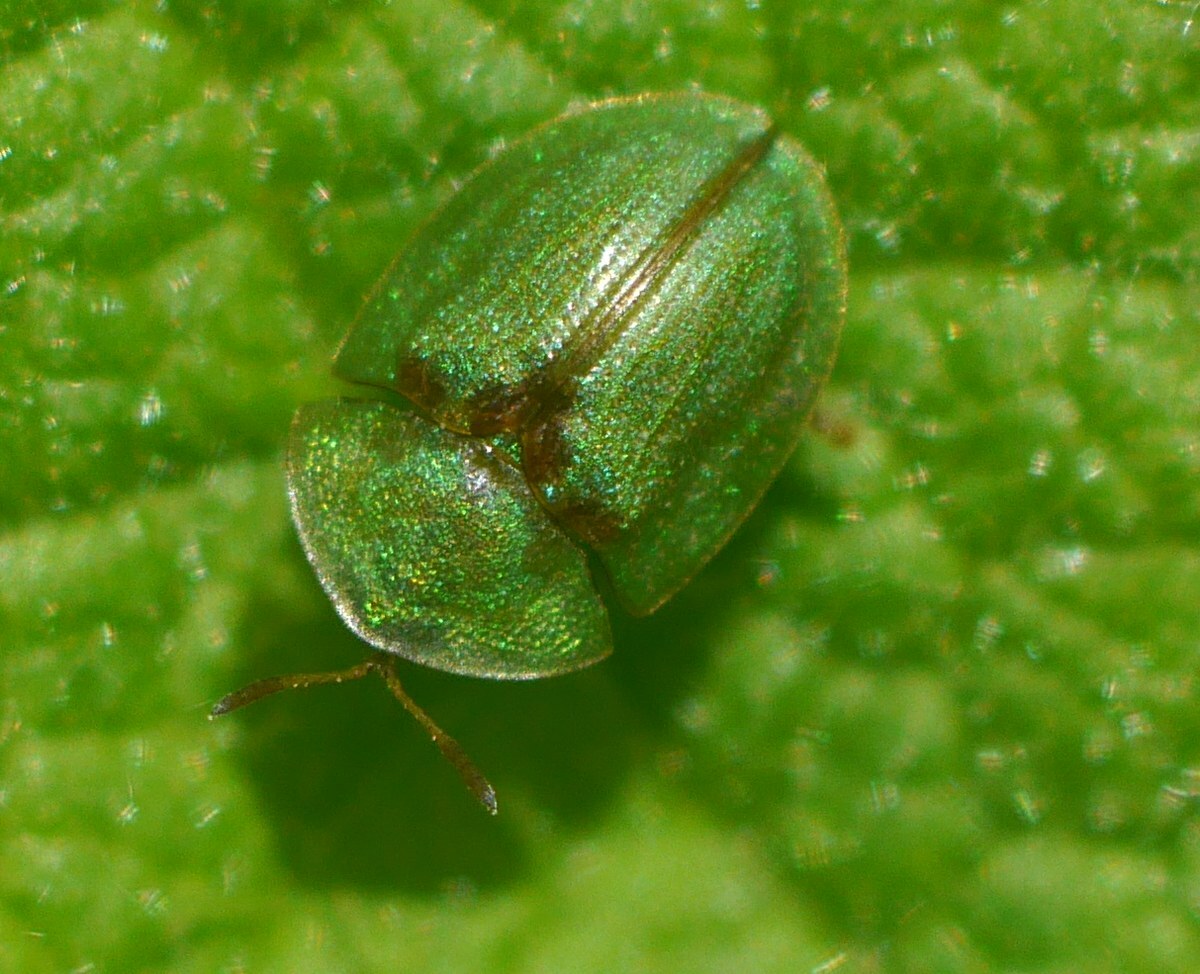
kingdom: Animalia
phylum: Arthropoda
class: Insecta
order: Coleoptera
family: Chrysomelidae
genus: Cassida
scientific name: Cassida prasina
